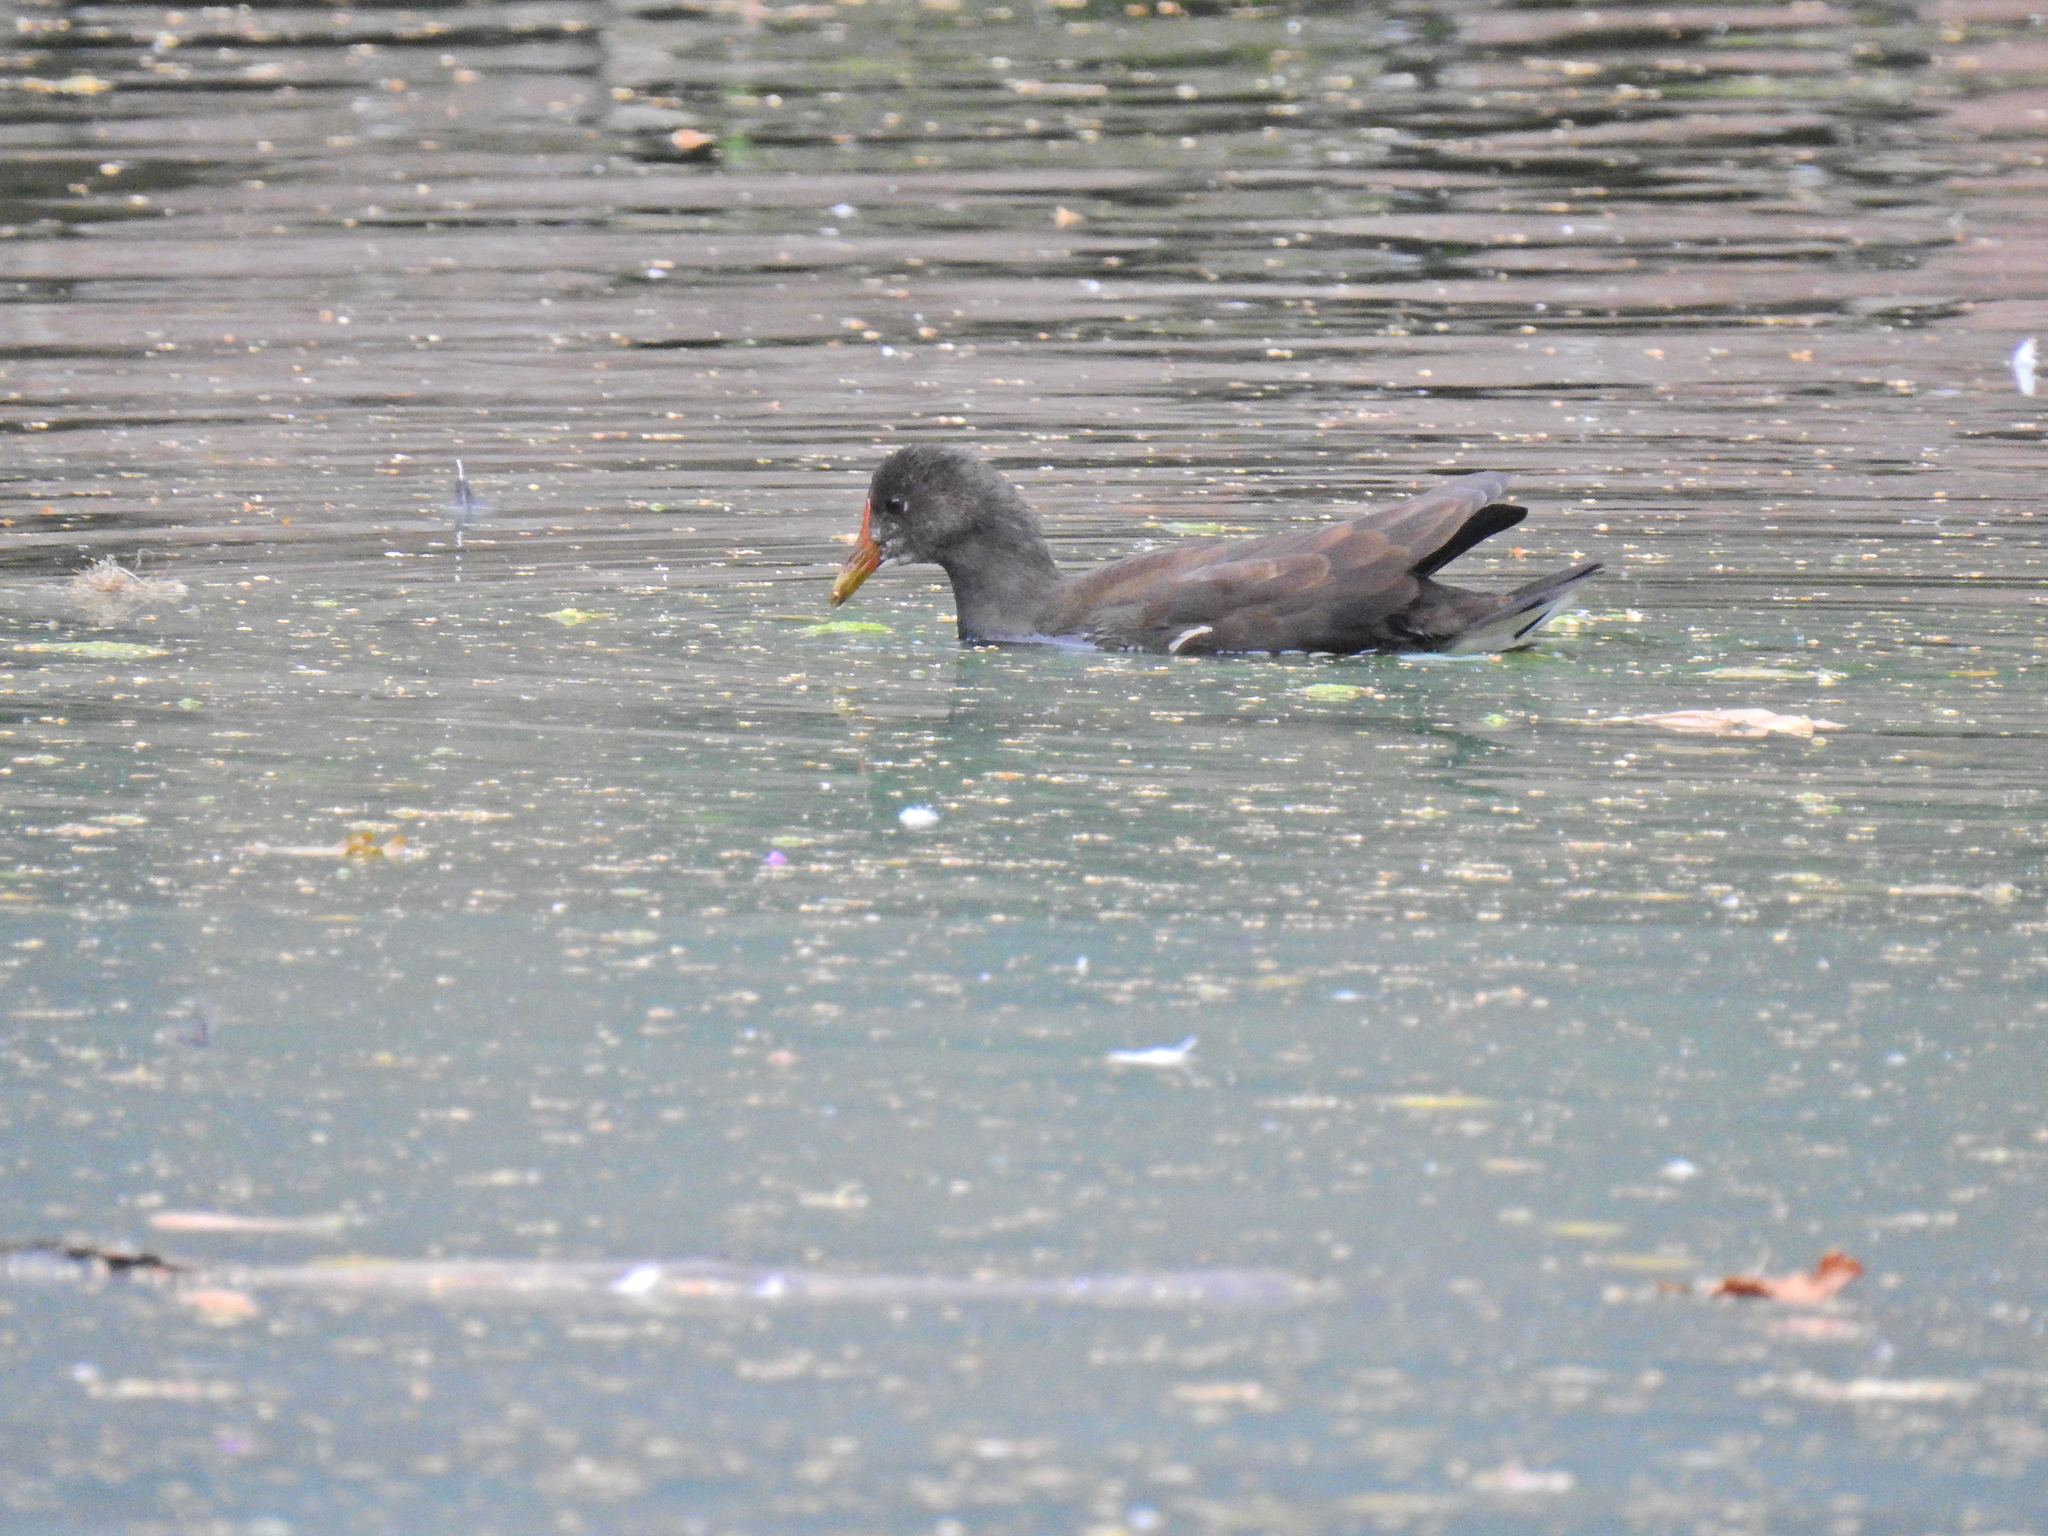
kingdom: Animalia
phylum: Chordata
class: Aves
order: Gruiformes
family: Rallidae
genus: Gallinula
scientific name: Gallinula chloropus
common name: Common moorhen
